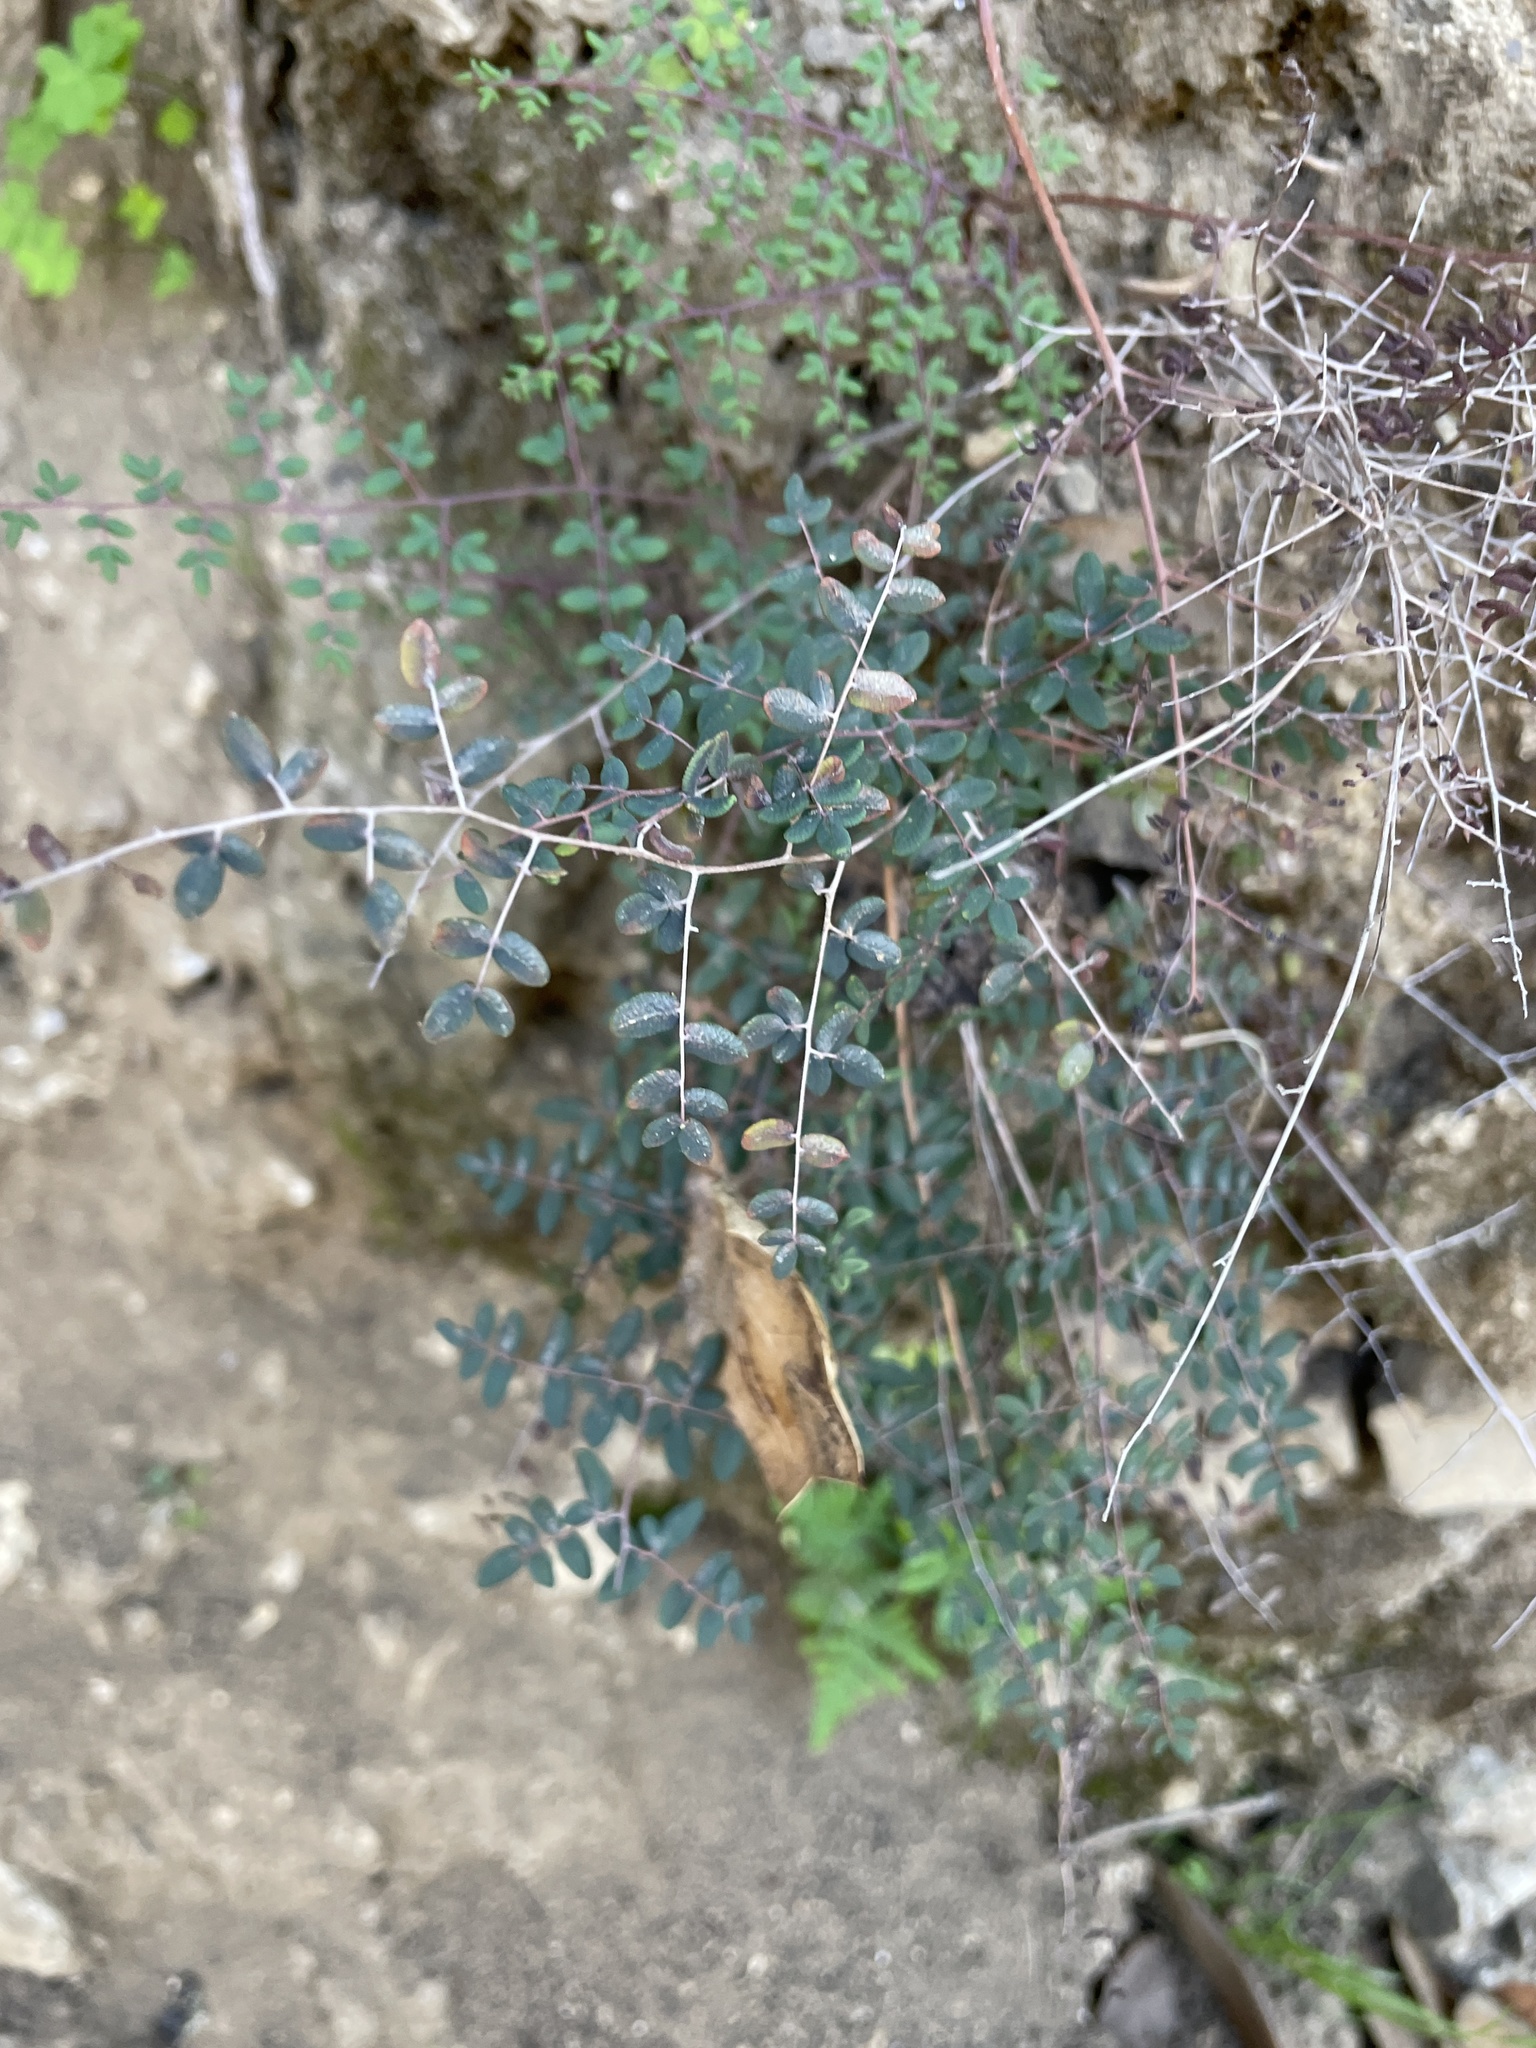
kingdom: Plantae
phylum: Tracheophyta
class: Polypodiopsida
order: Polypodiales
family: Pteridaceae
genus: Pellaea
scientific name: Pellaea andromedifolia
